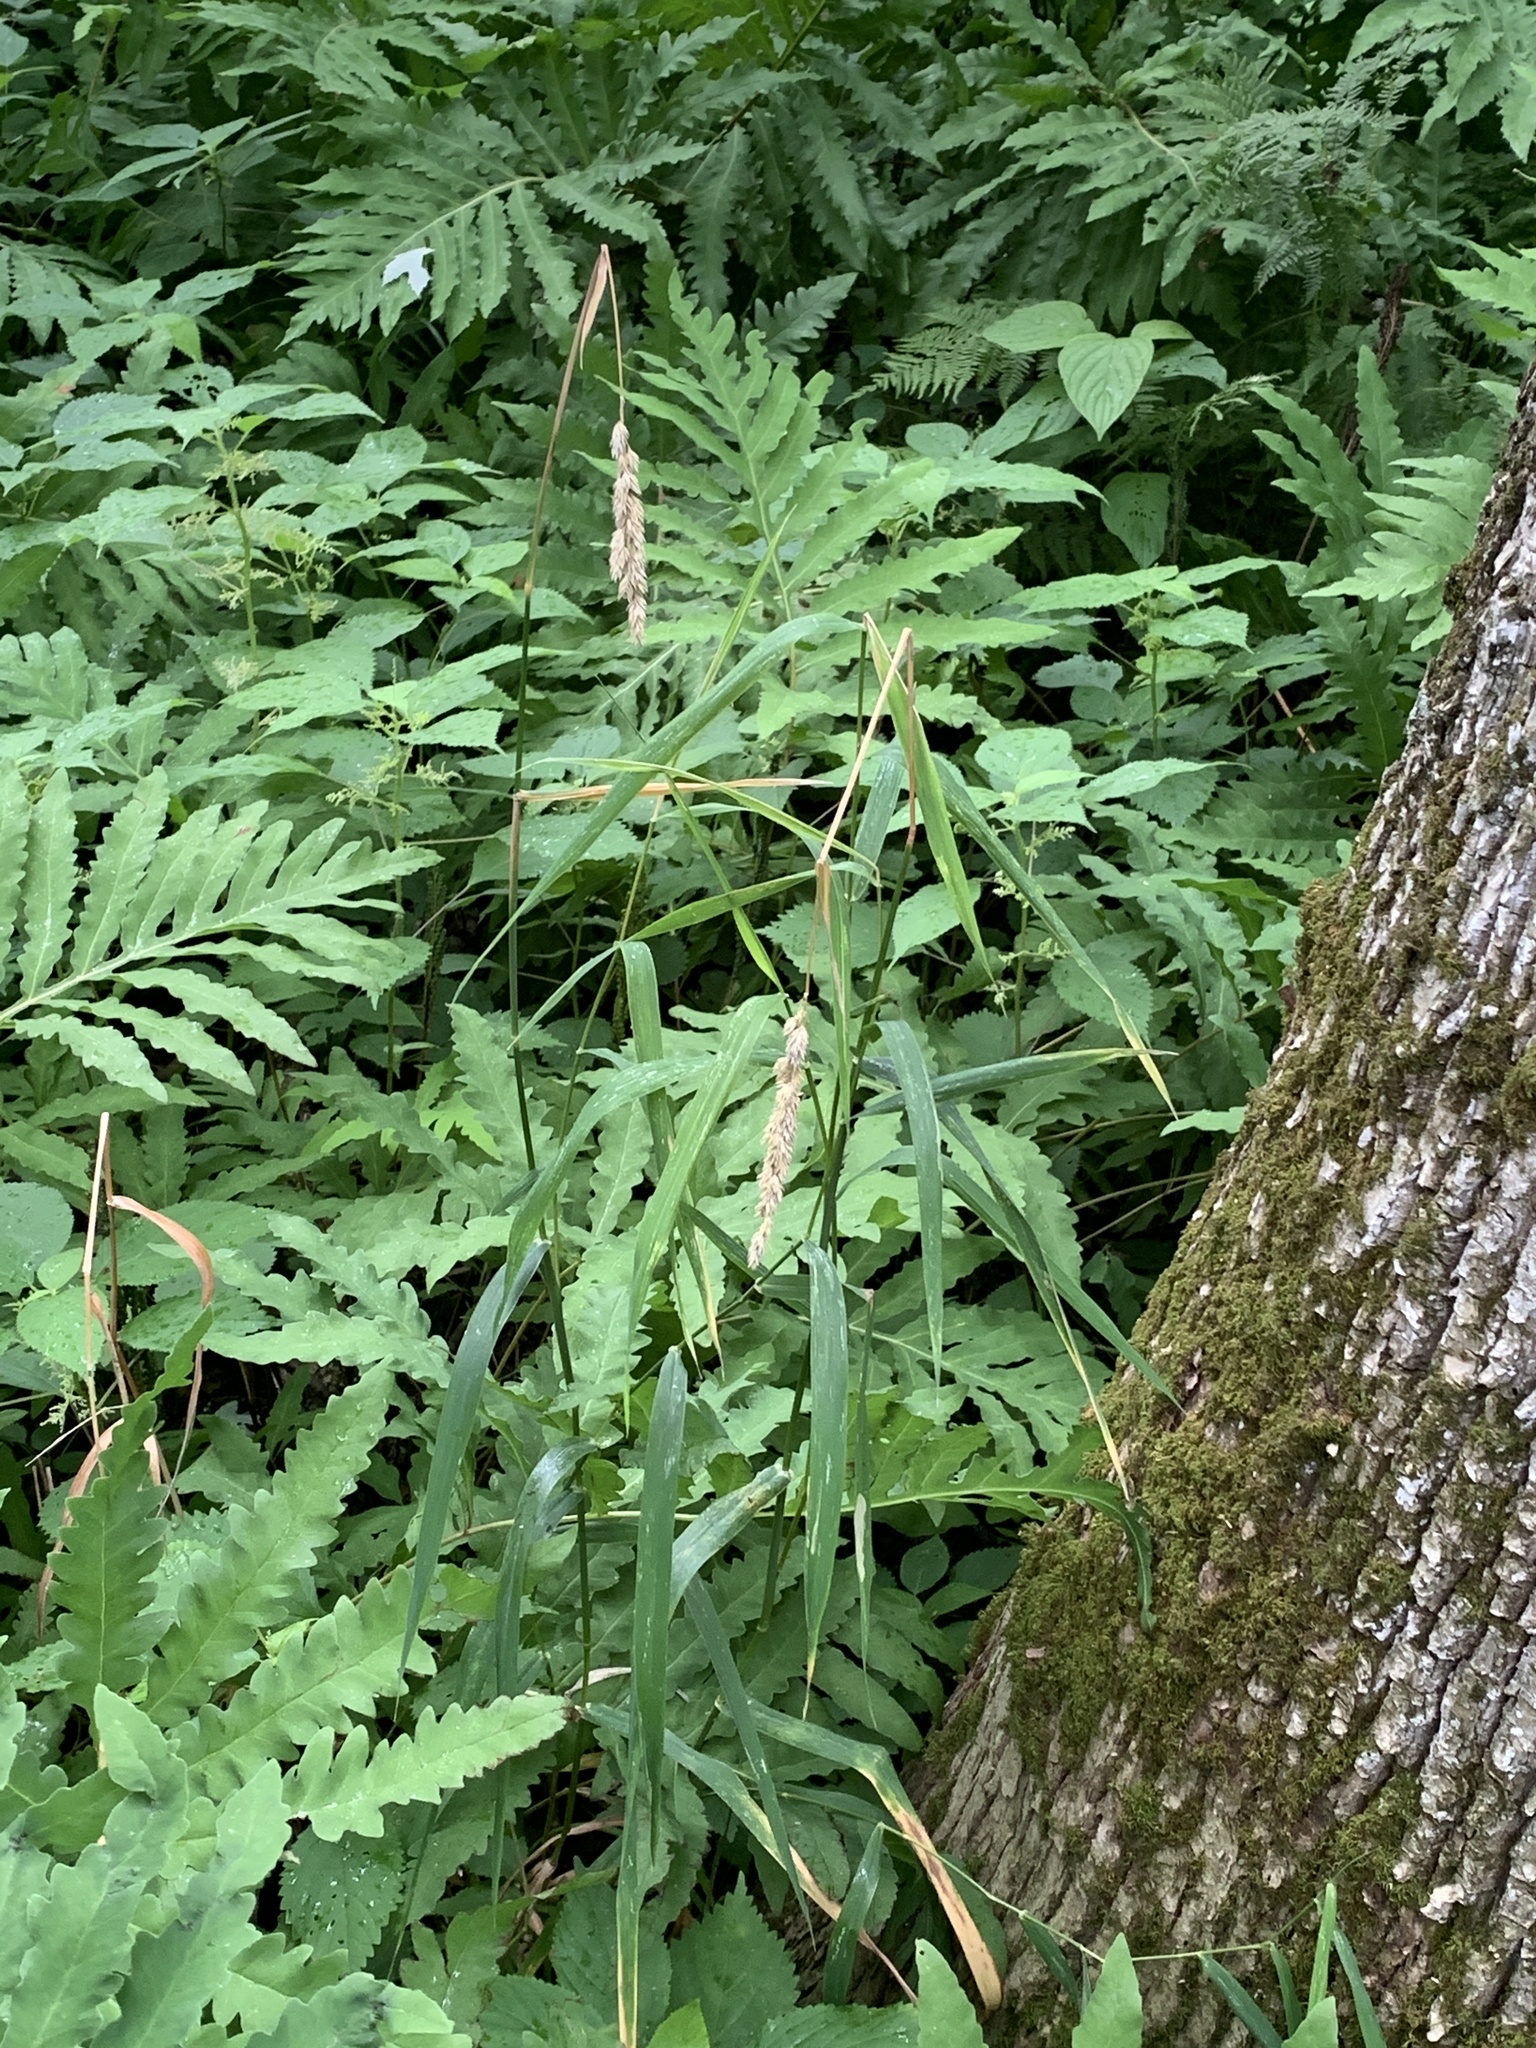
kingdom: Plantae
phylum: Tracheophyta
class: Liliopsida
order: Poales
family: Poaceae
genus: Phalaris
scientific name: Phalaris arundinacea
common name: Reed canary-grass
